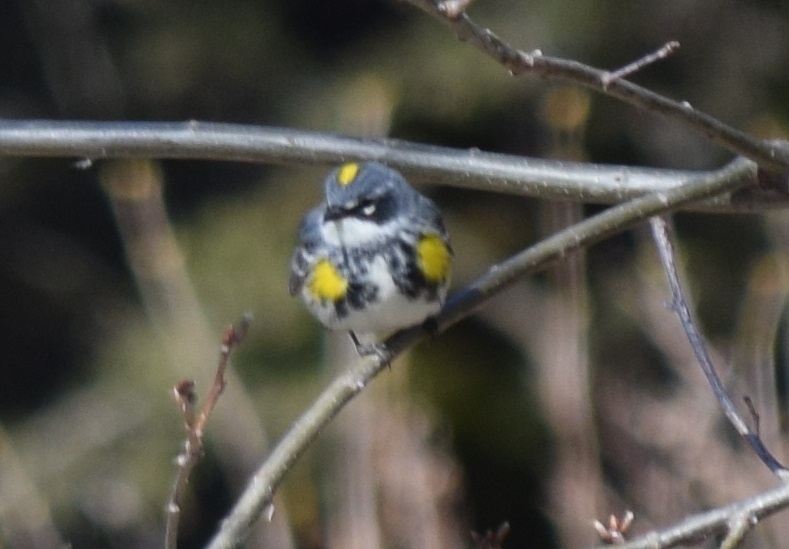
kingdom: Animalia
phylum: Chordata
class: Aves
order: Passeriformes
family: Parulidae
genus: Setophaga
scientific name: Setophaga coronata
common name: Myrtle warbler
